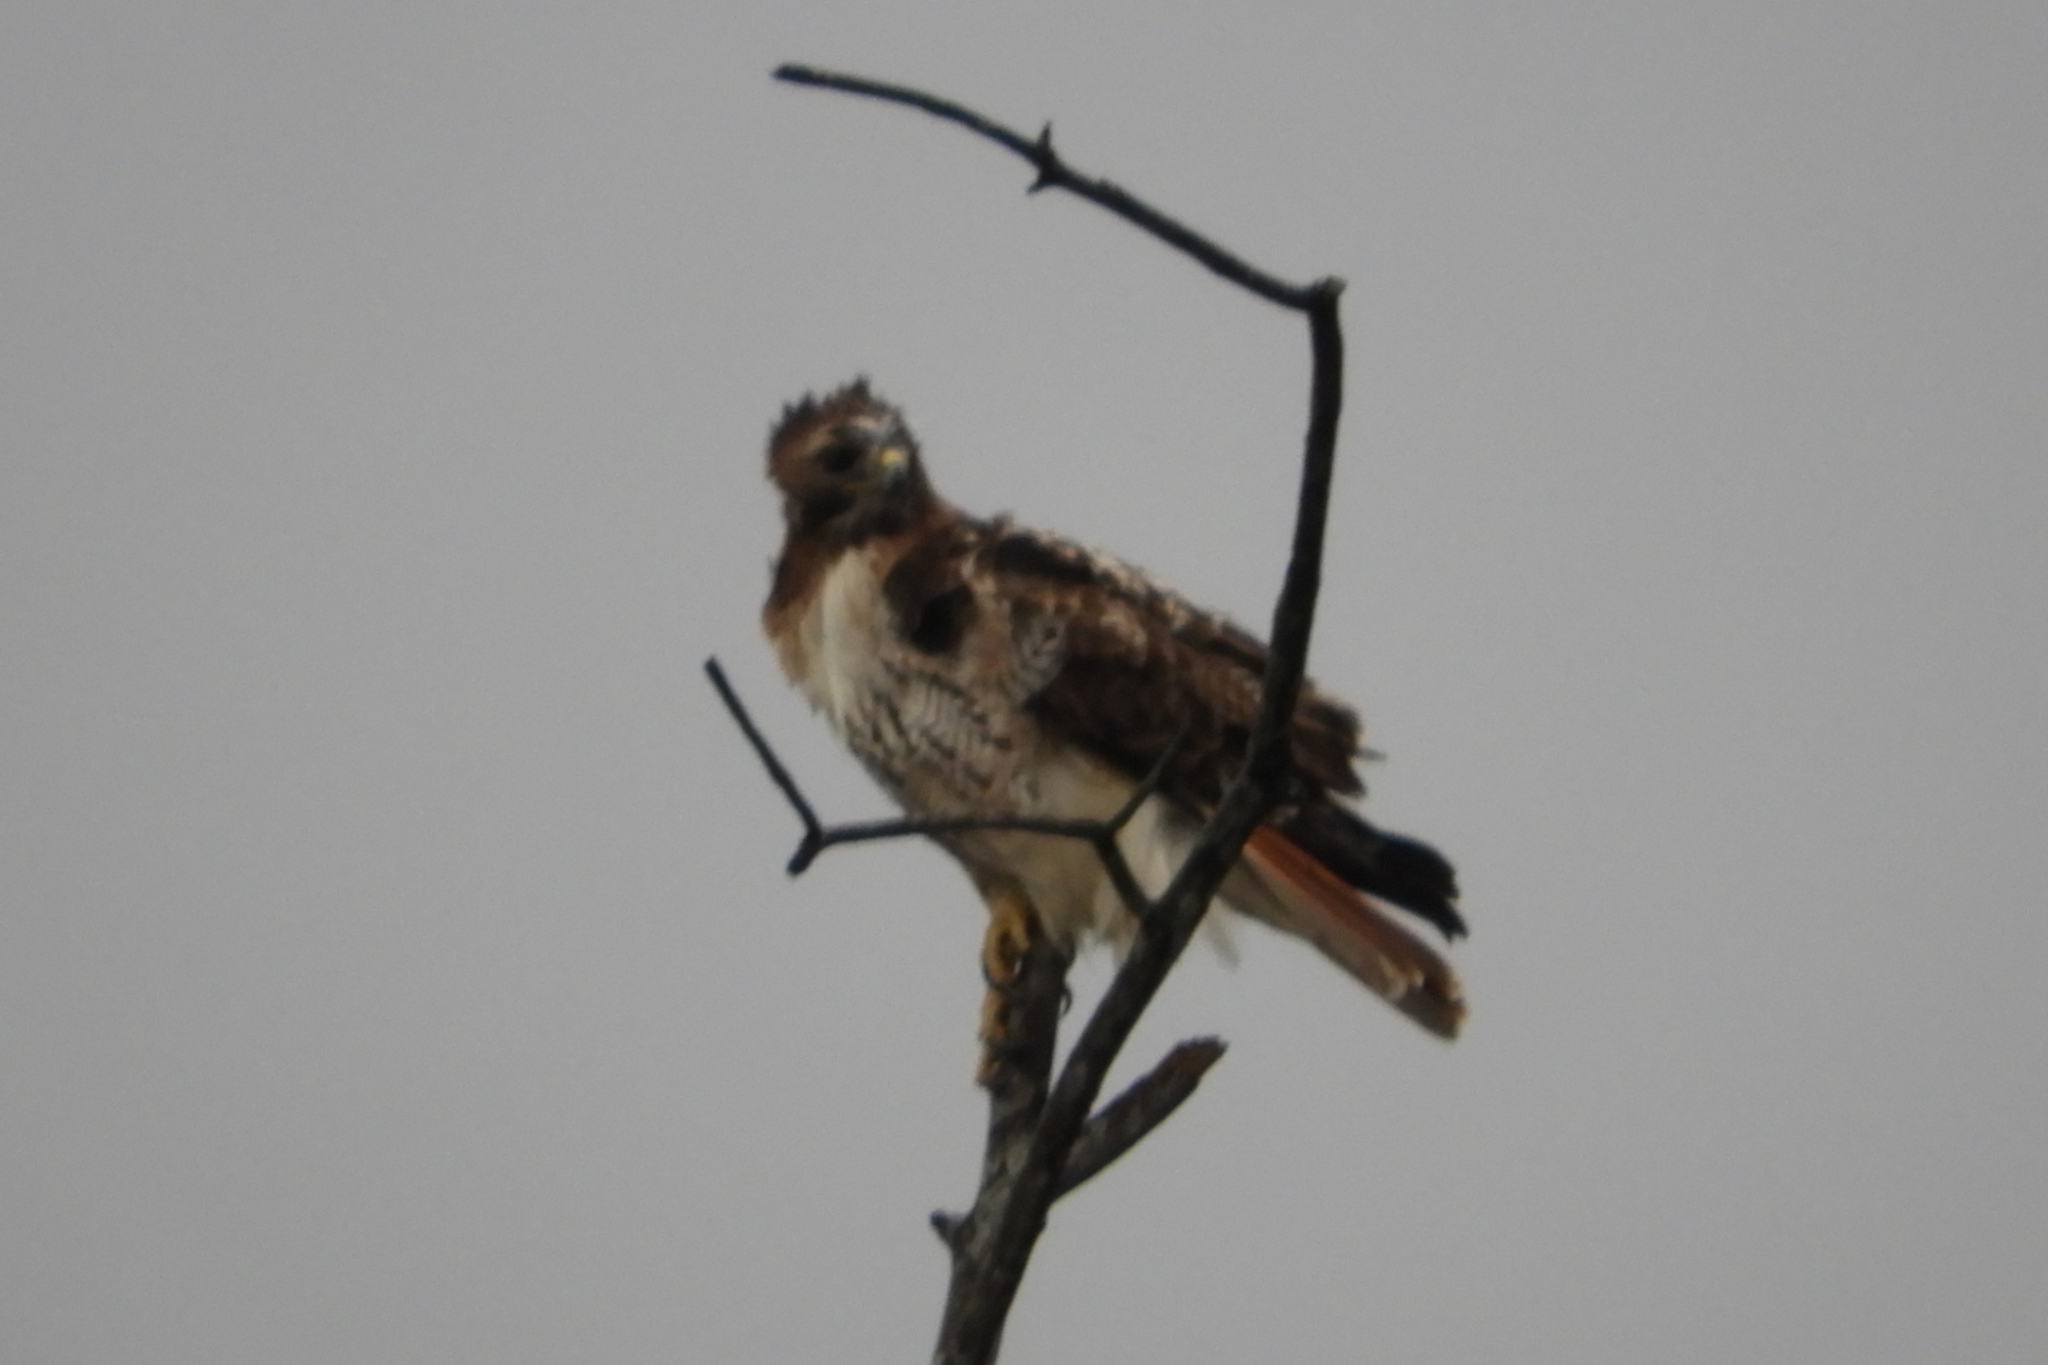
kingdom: Animalia
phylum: Chordata
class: Aves
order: Accipitriformes
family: Accipitridae
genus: Buteo
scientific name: Buteo jamaicensis
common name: Red-tailed hawk
